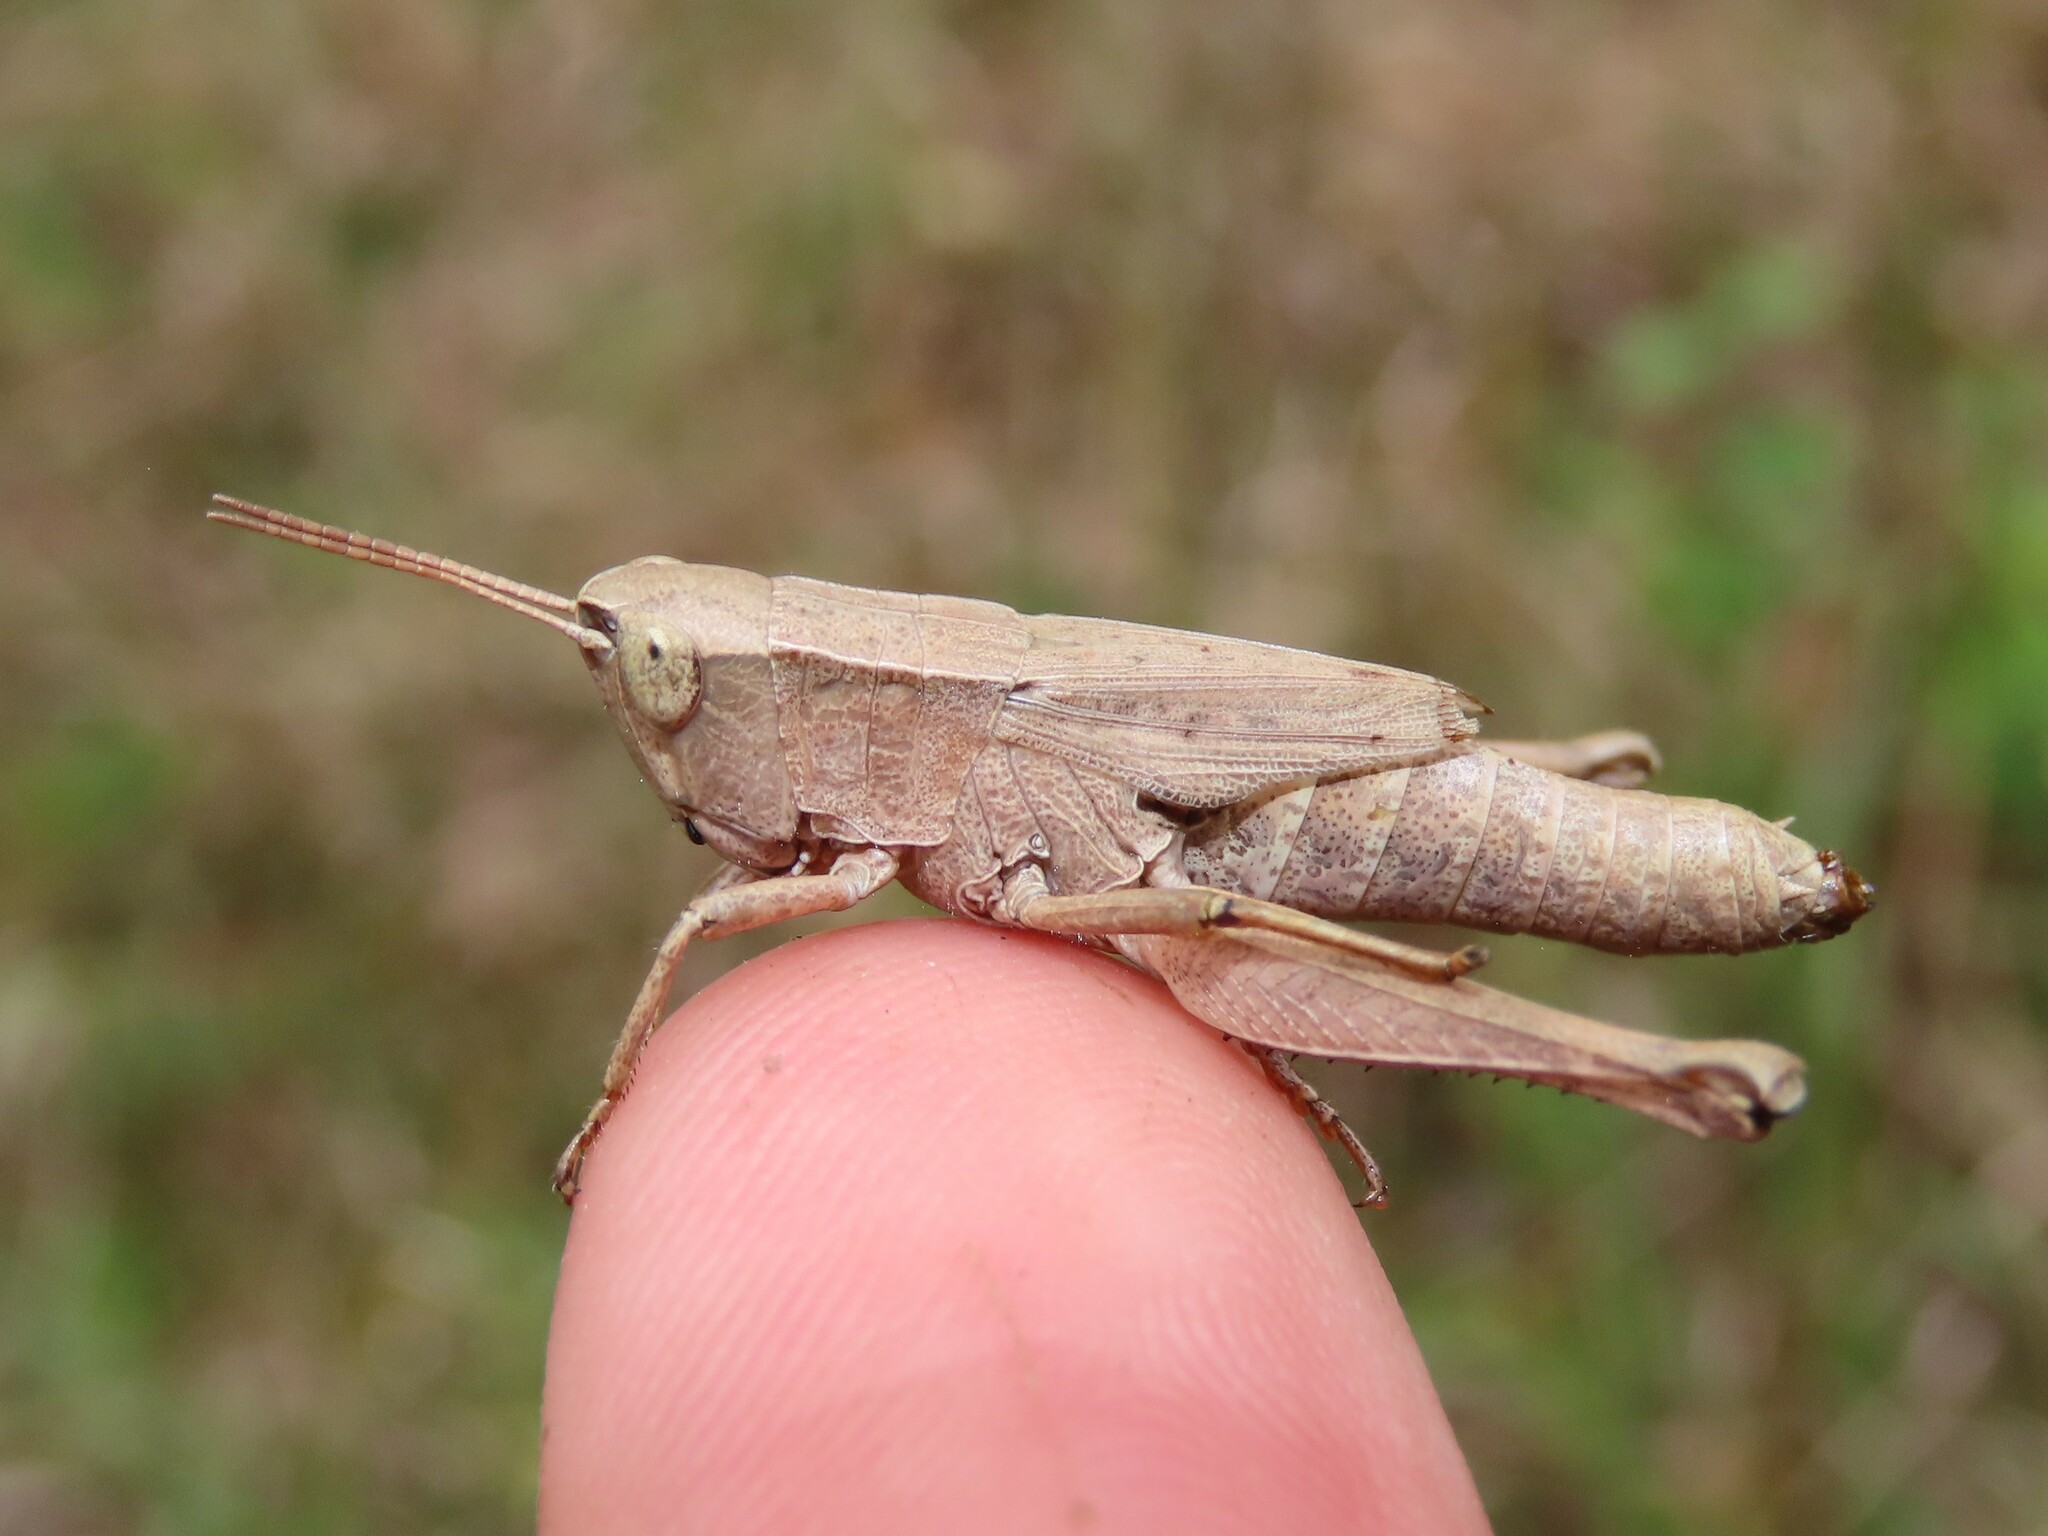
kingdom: Animalia
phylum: Arthropoda
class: Insecta
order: Orthoptera
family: Acrididae
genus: Dichromorpha
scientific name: Dichromorpha viridis
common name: Short-winged green grasshopper
